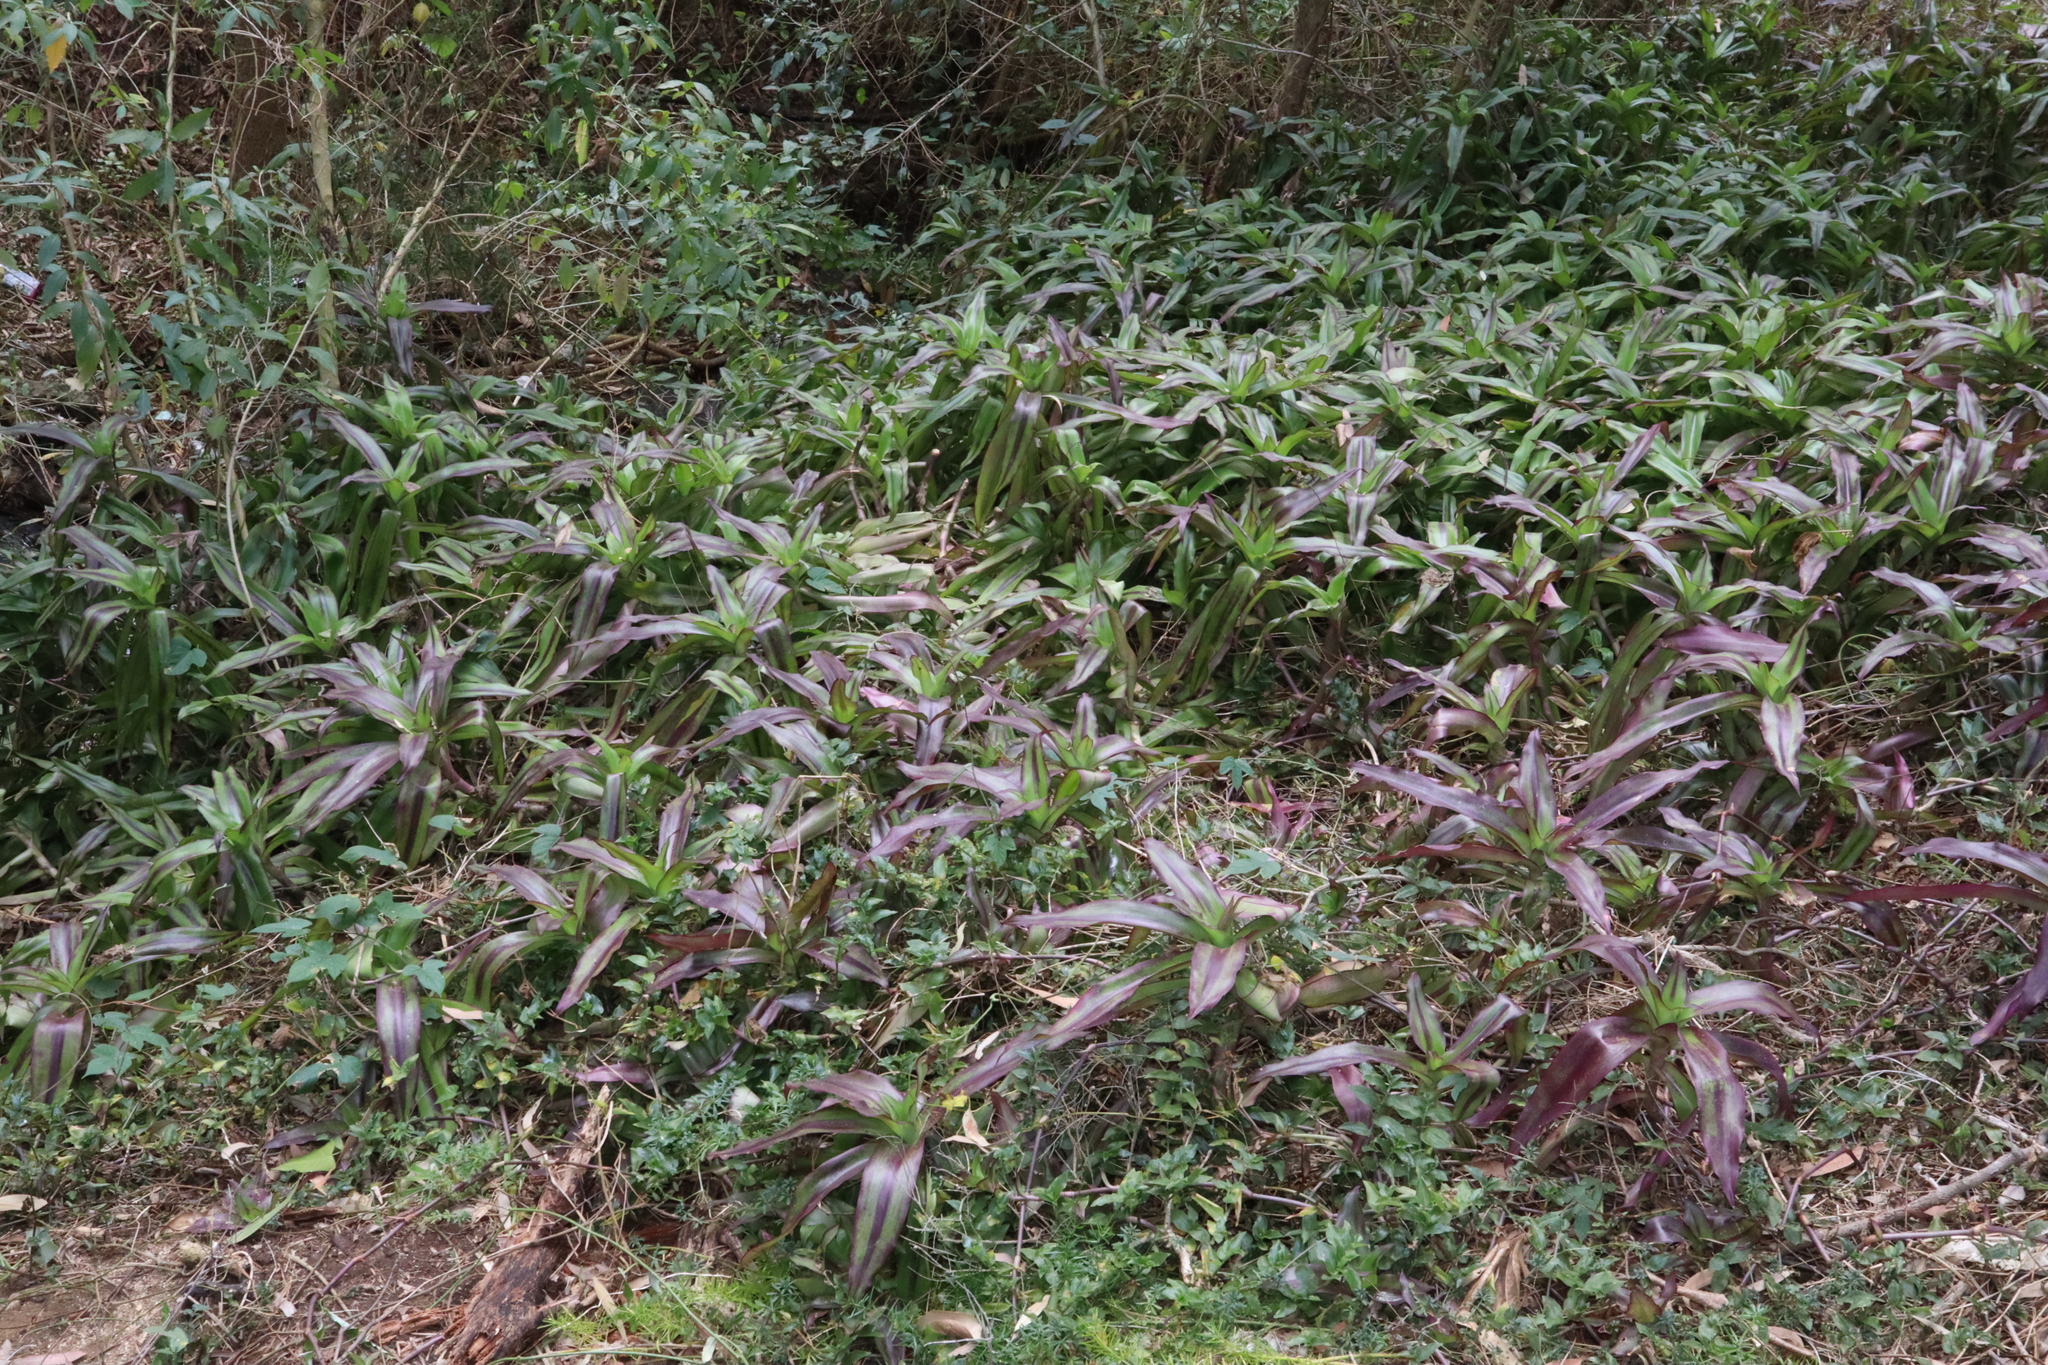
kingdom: Plantae
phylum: Tracheophyta
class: Liliopsida
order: Commelinales
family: Commelinaceae
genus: Callisia
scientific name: Callisia fragrans
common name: Basketplant
